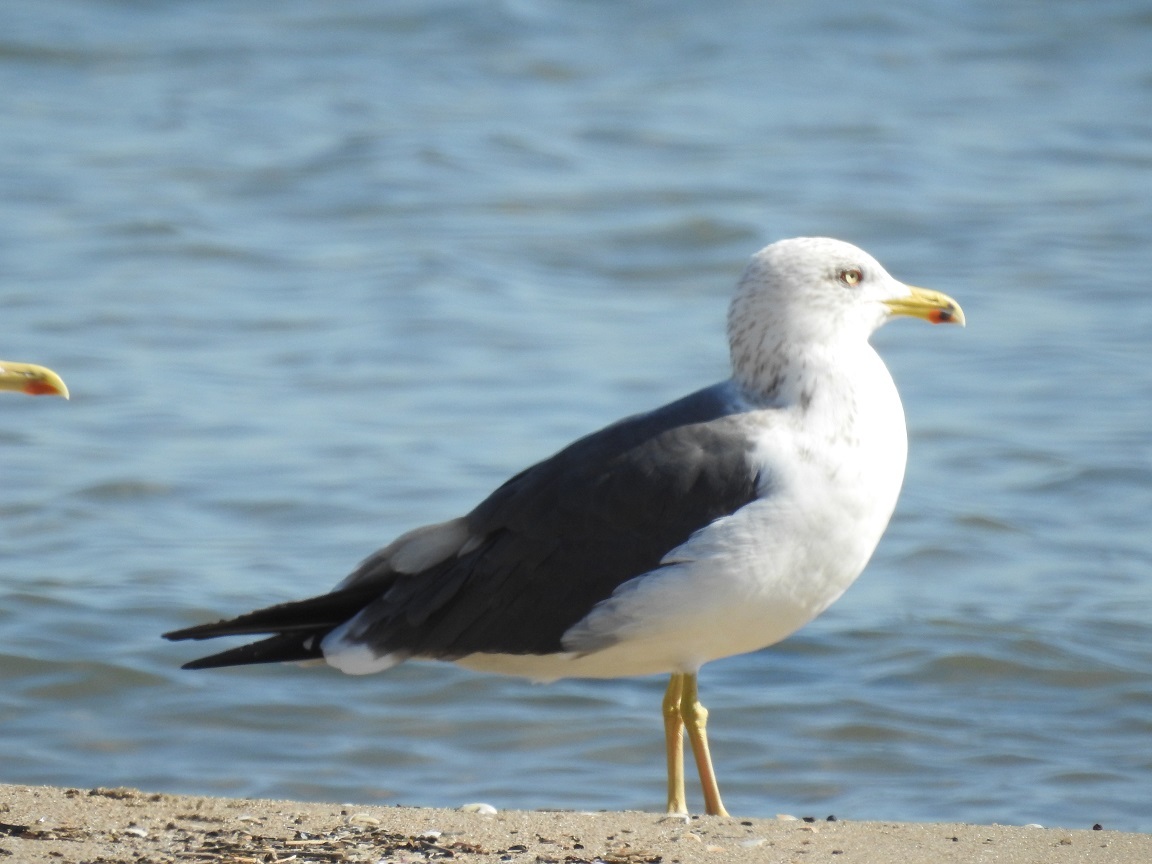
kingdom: Animalia
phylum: Chordata
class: Aves
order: Charadriiformes
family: Laridae
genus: Larus
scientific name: Larus fuscus
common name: Lesser black-backed gull
